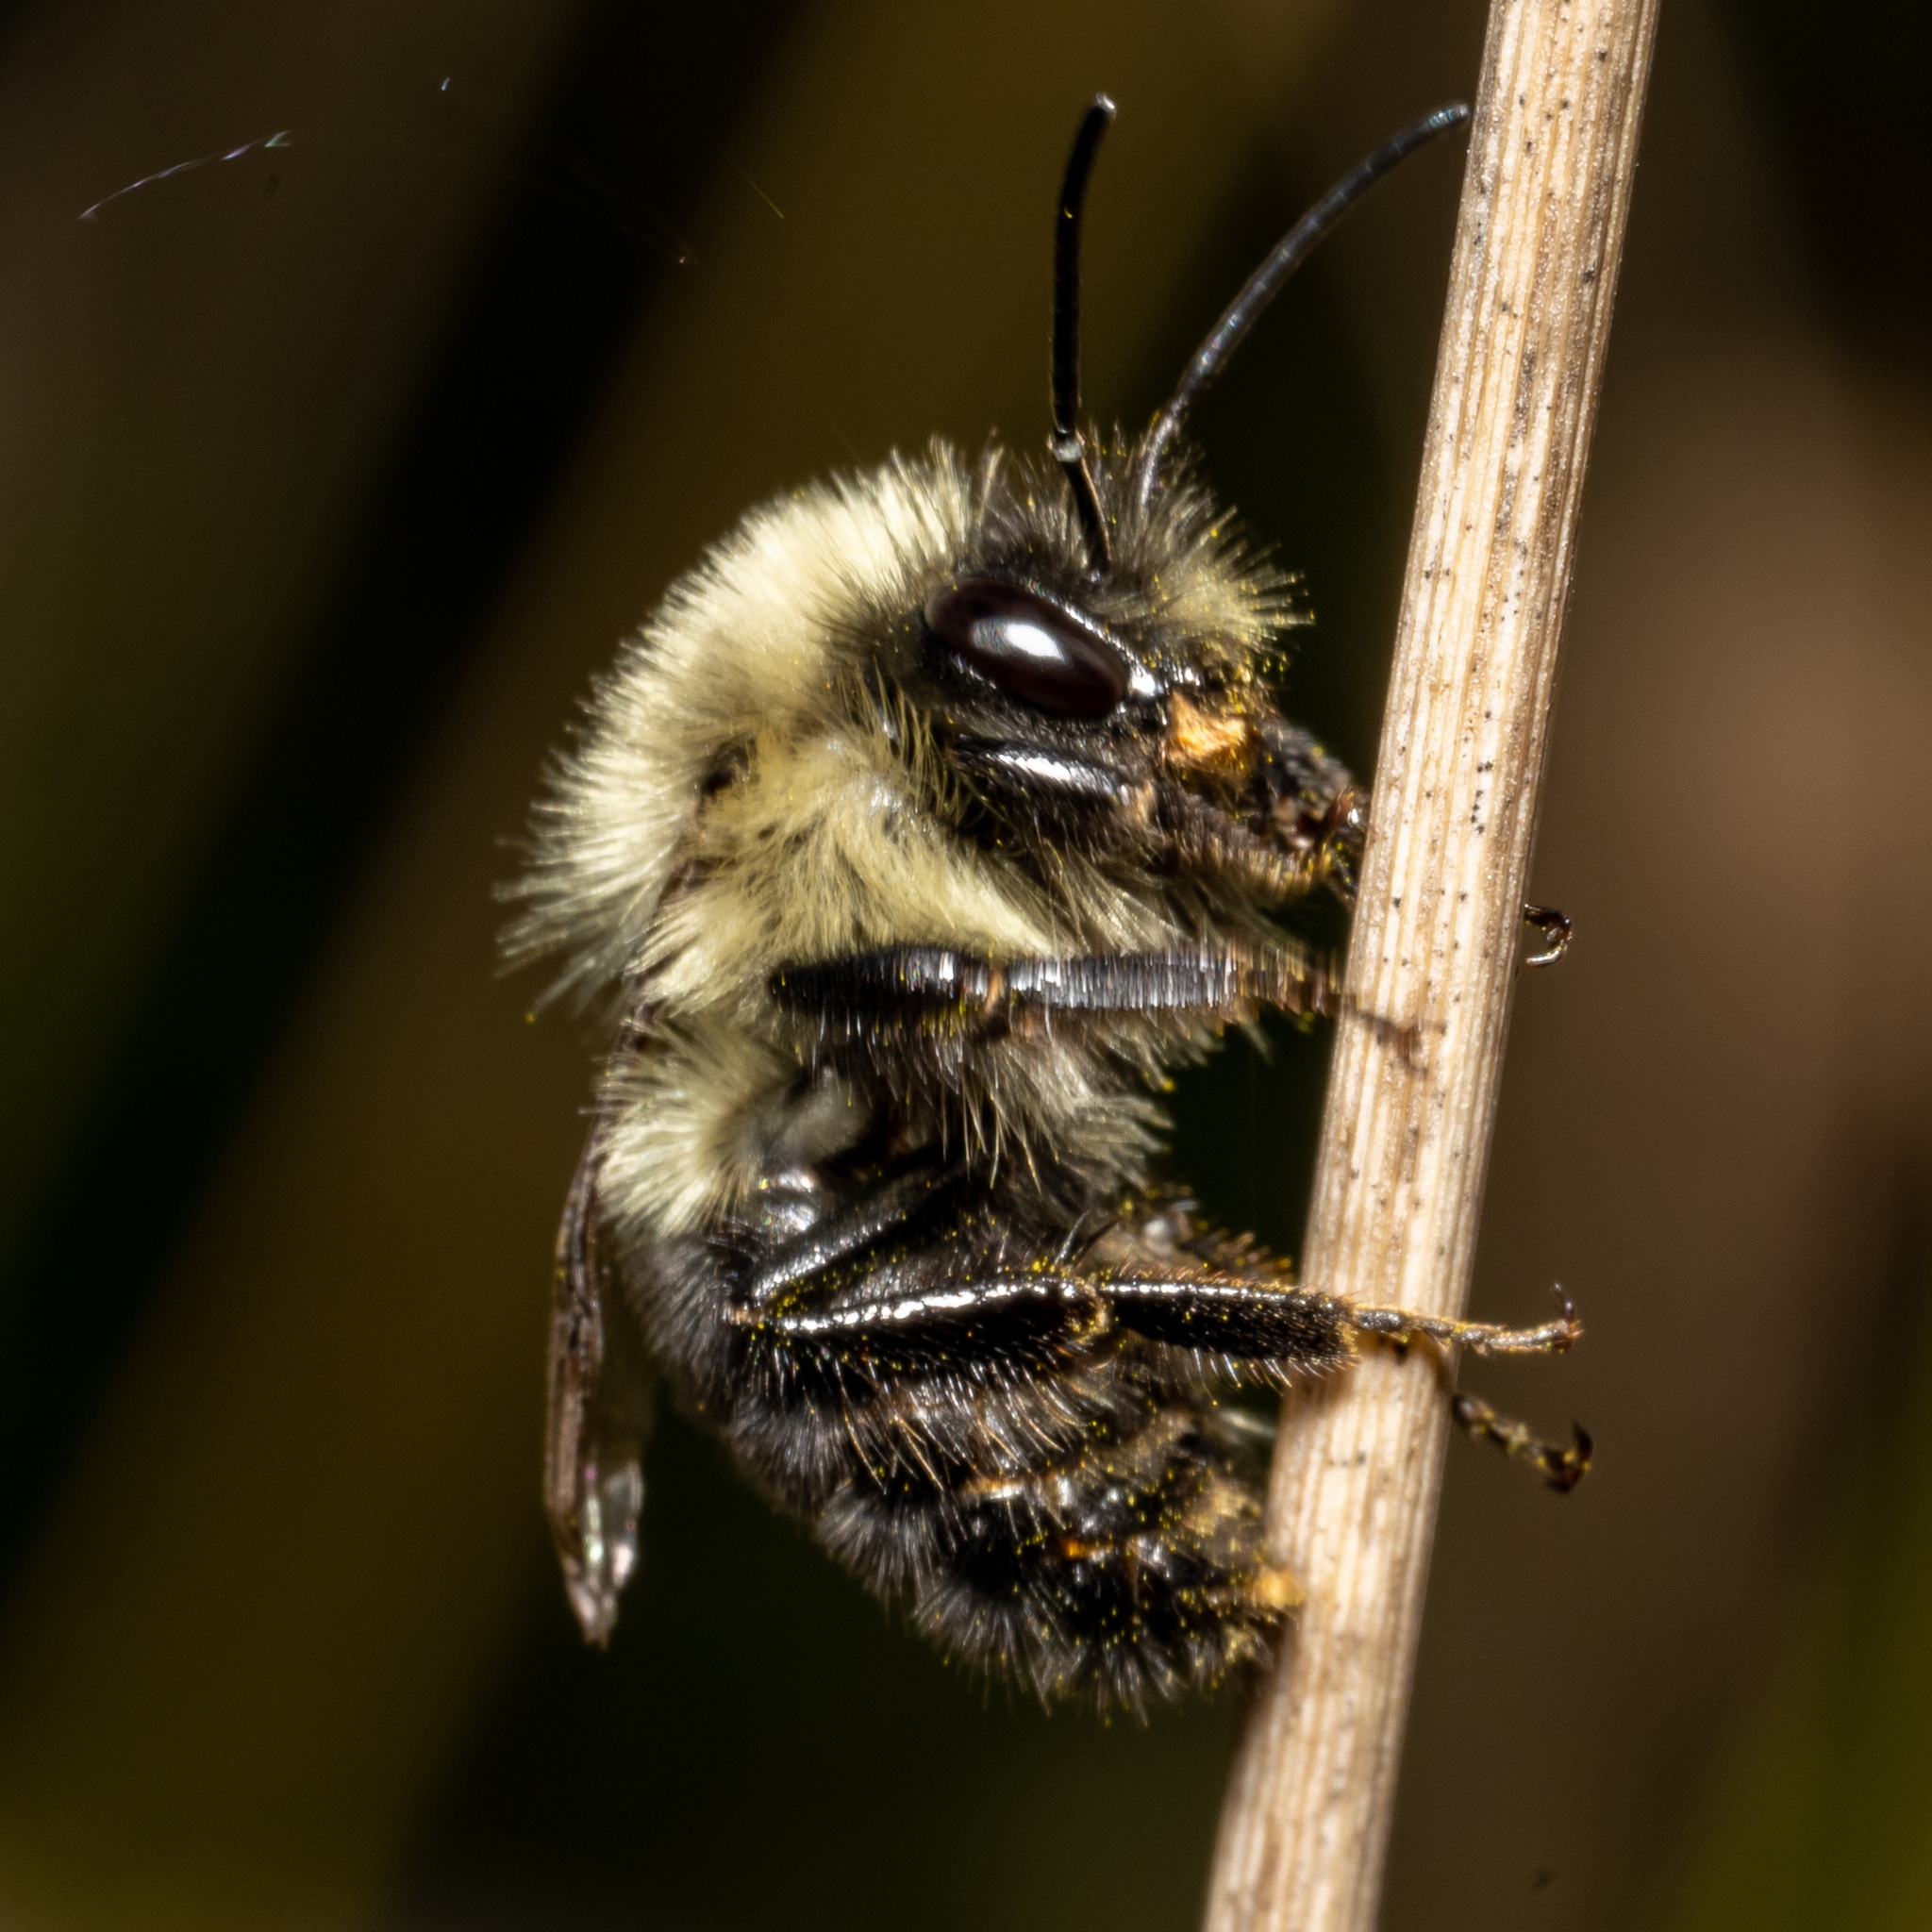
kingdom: Animalia
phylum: Arthropoda
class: Insecta
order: Hymenoptera
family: Apidae
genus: Bombus
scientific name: Bombus impatiens
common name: Common eastern bumble bee
